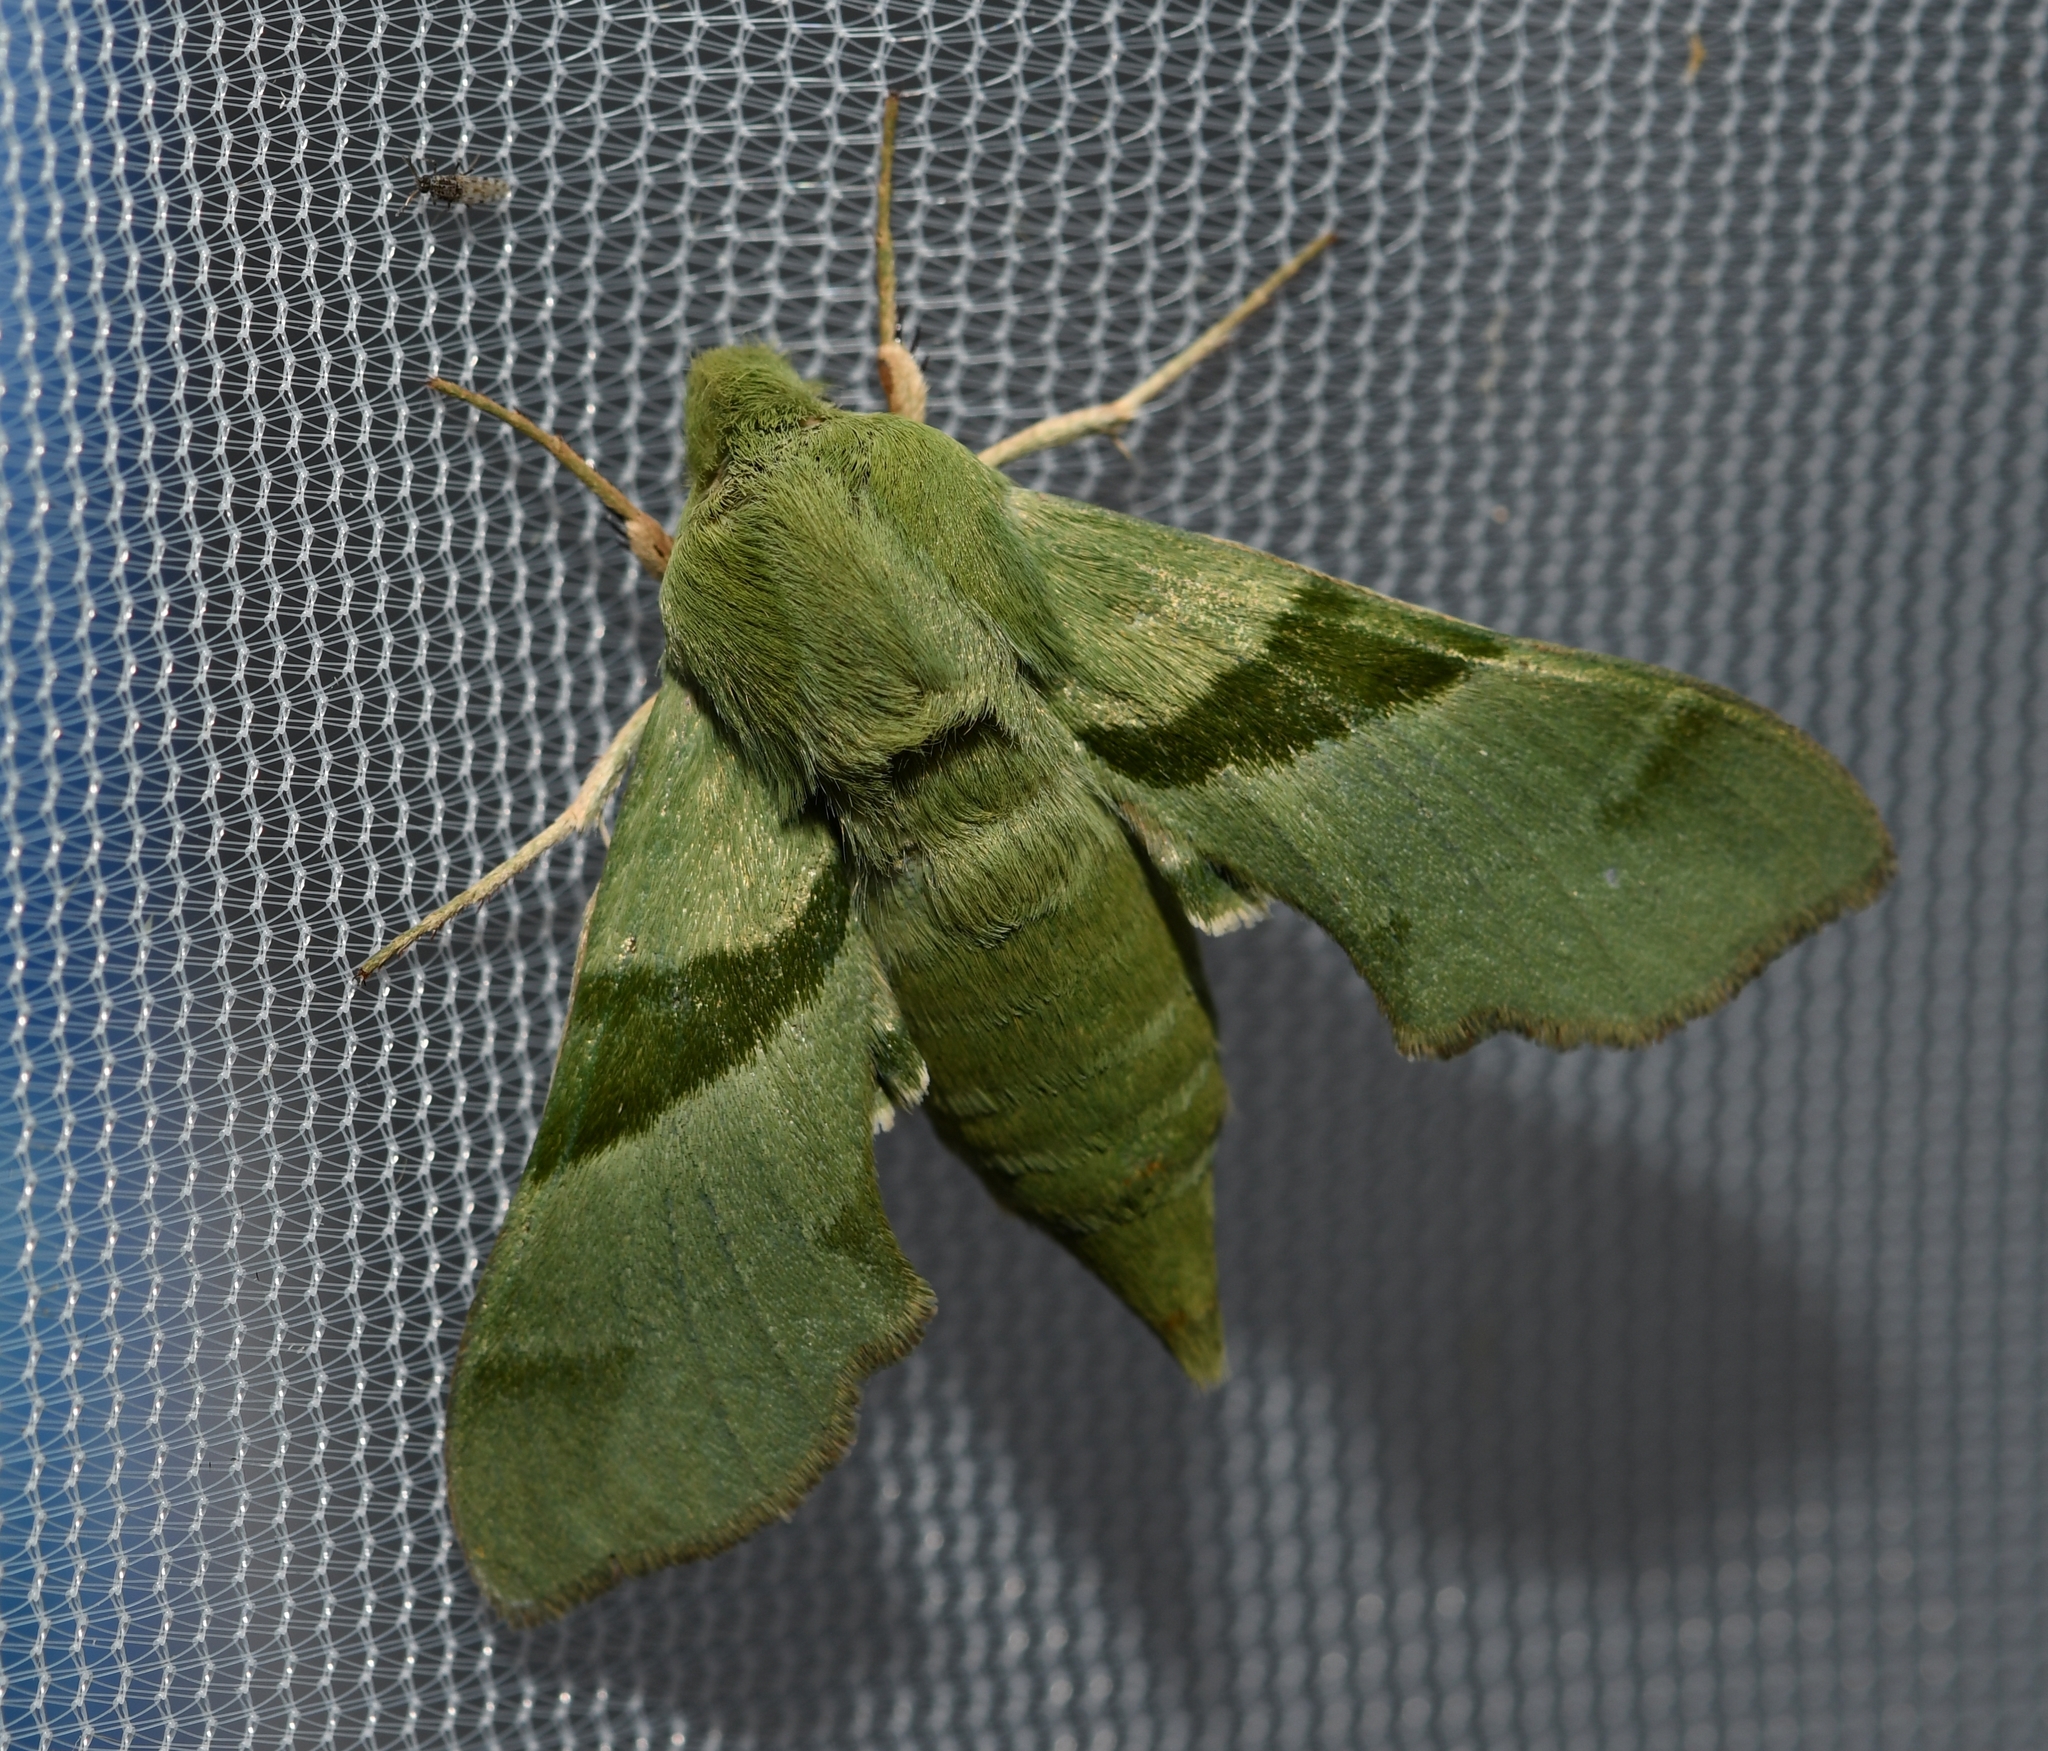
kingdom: Animalia
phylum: Arthropoda
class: Insecta
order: Lepidoptera
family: Sphingidae
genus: Proserpinus
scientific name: Proserpinus terlooii
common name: Terloo's sphinx
